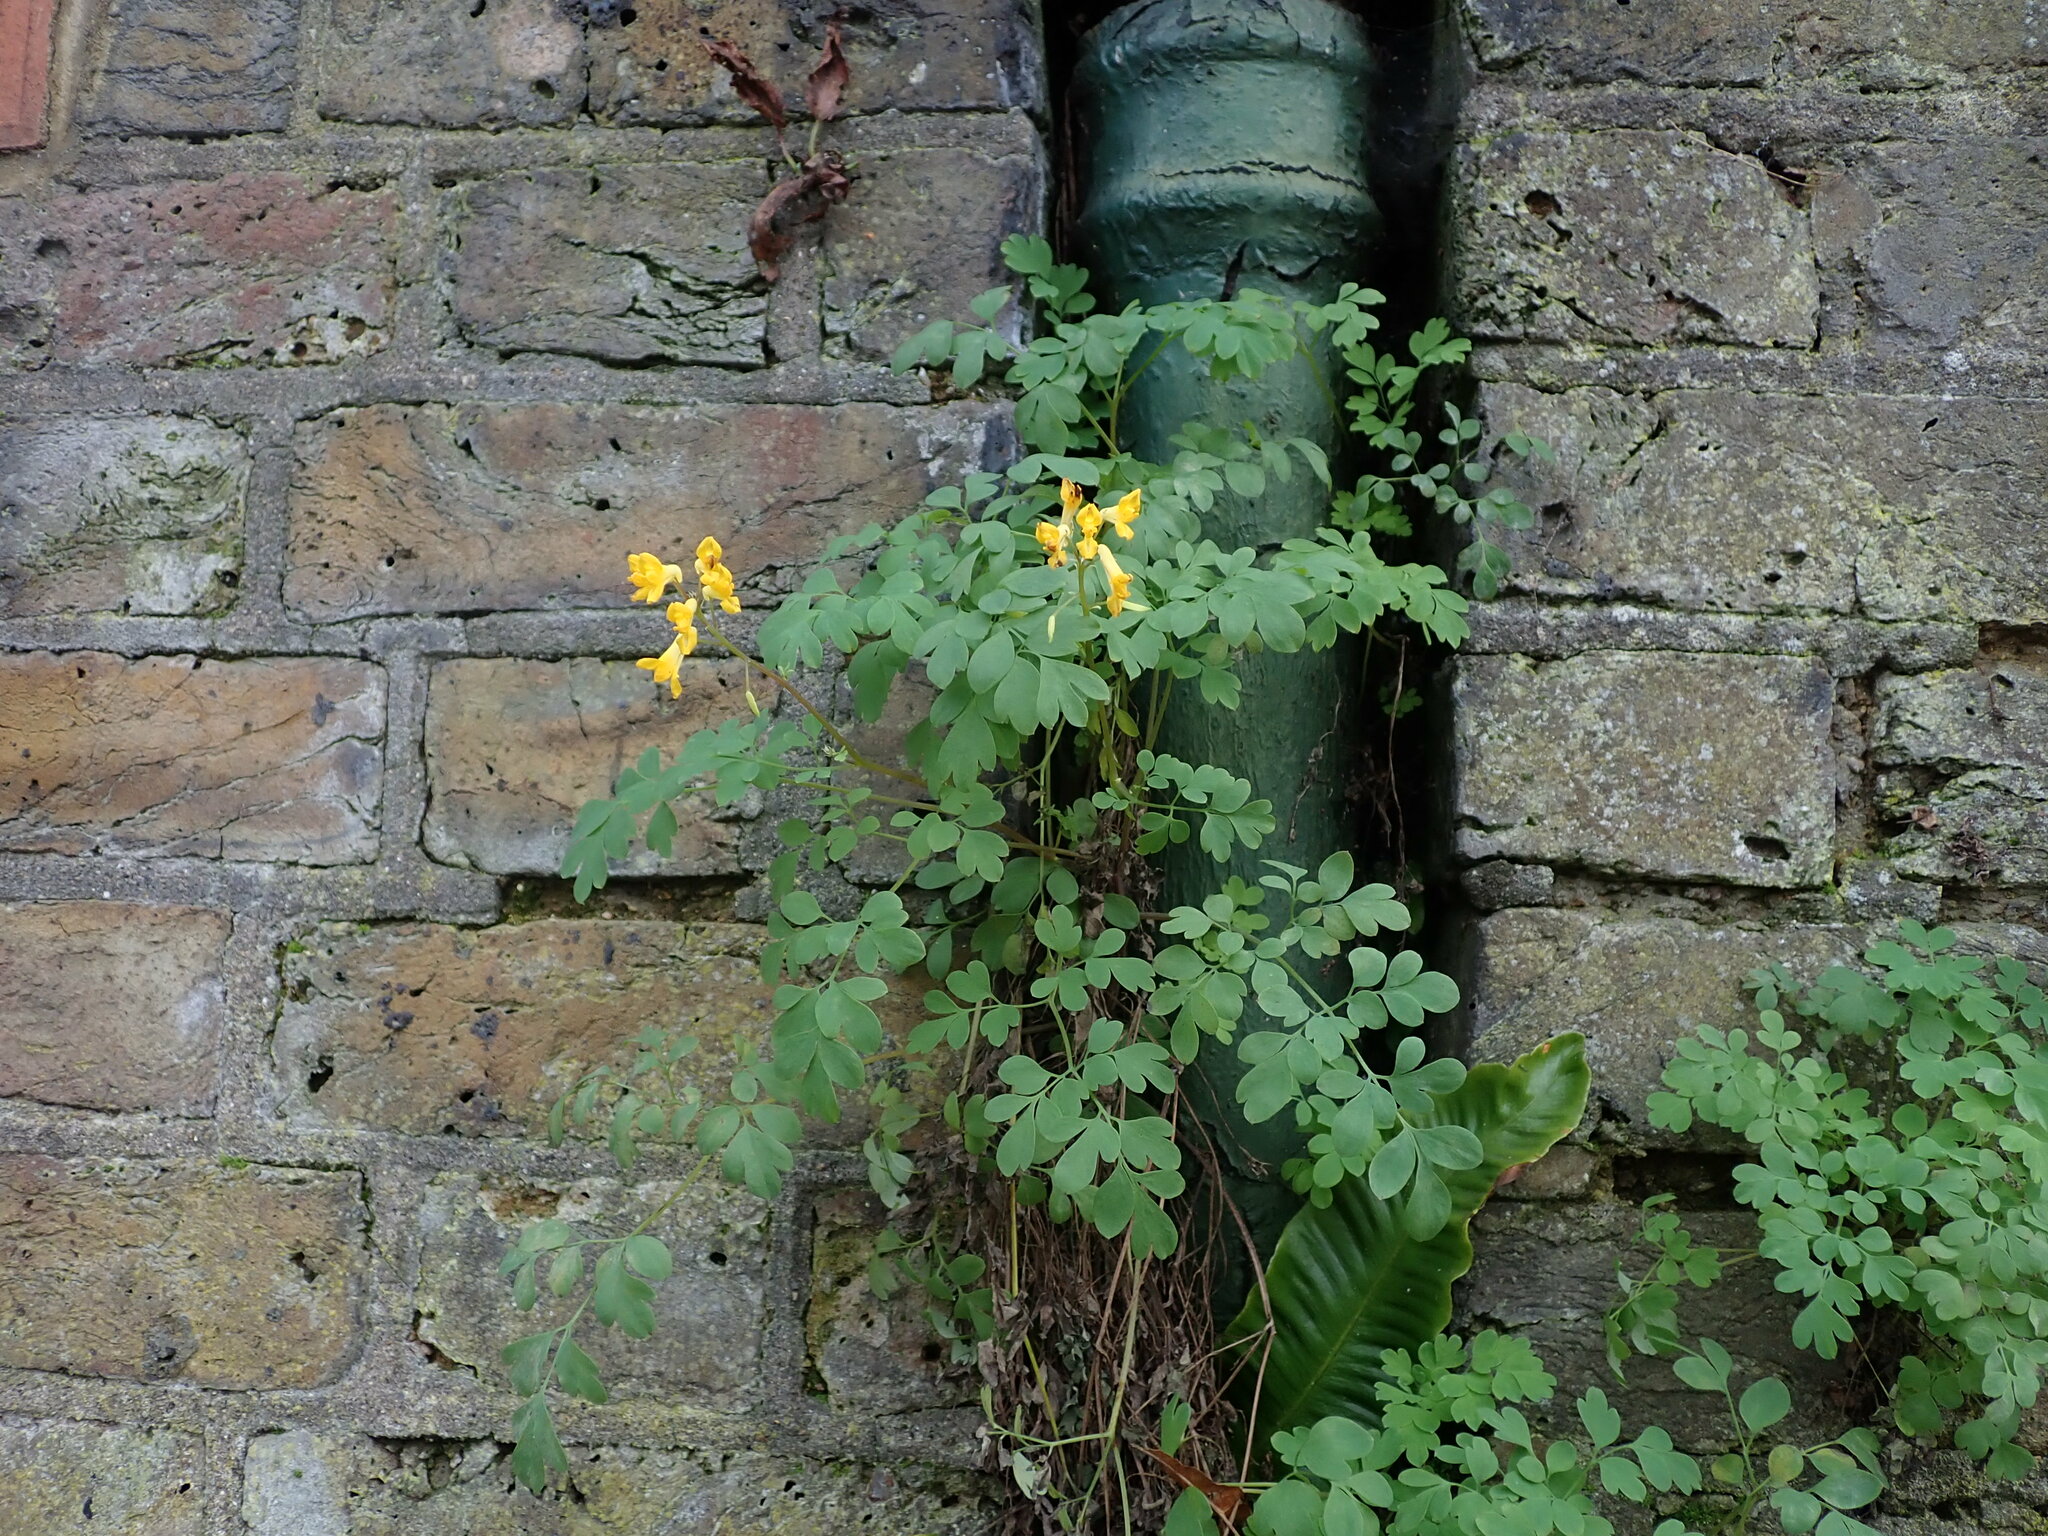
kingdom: Plantae
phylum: Tracheophyta
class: Magnoliopsida
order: Ranunculales
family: Papaveraceae
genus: Pseudofumaria
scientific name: Pseudofumaria lutea
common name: Yellow corydalis
